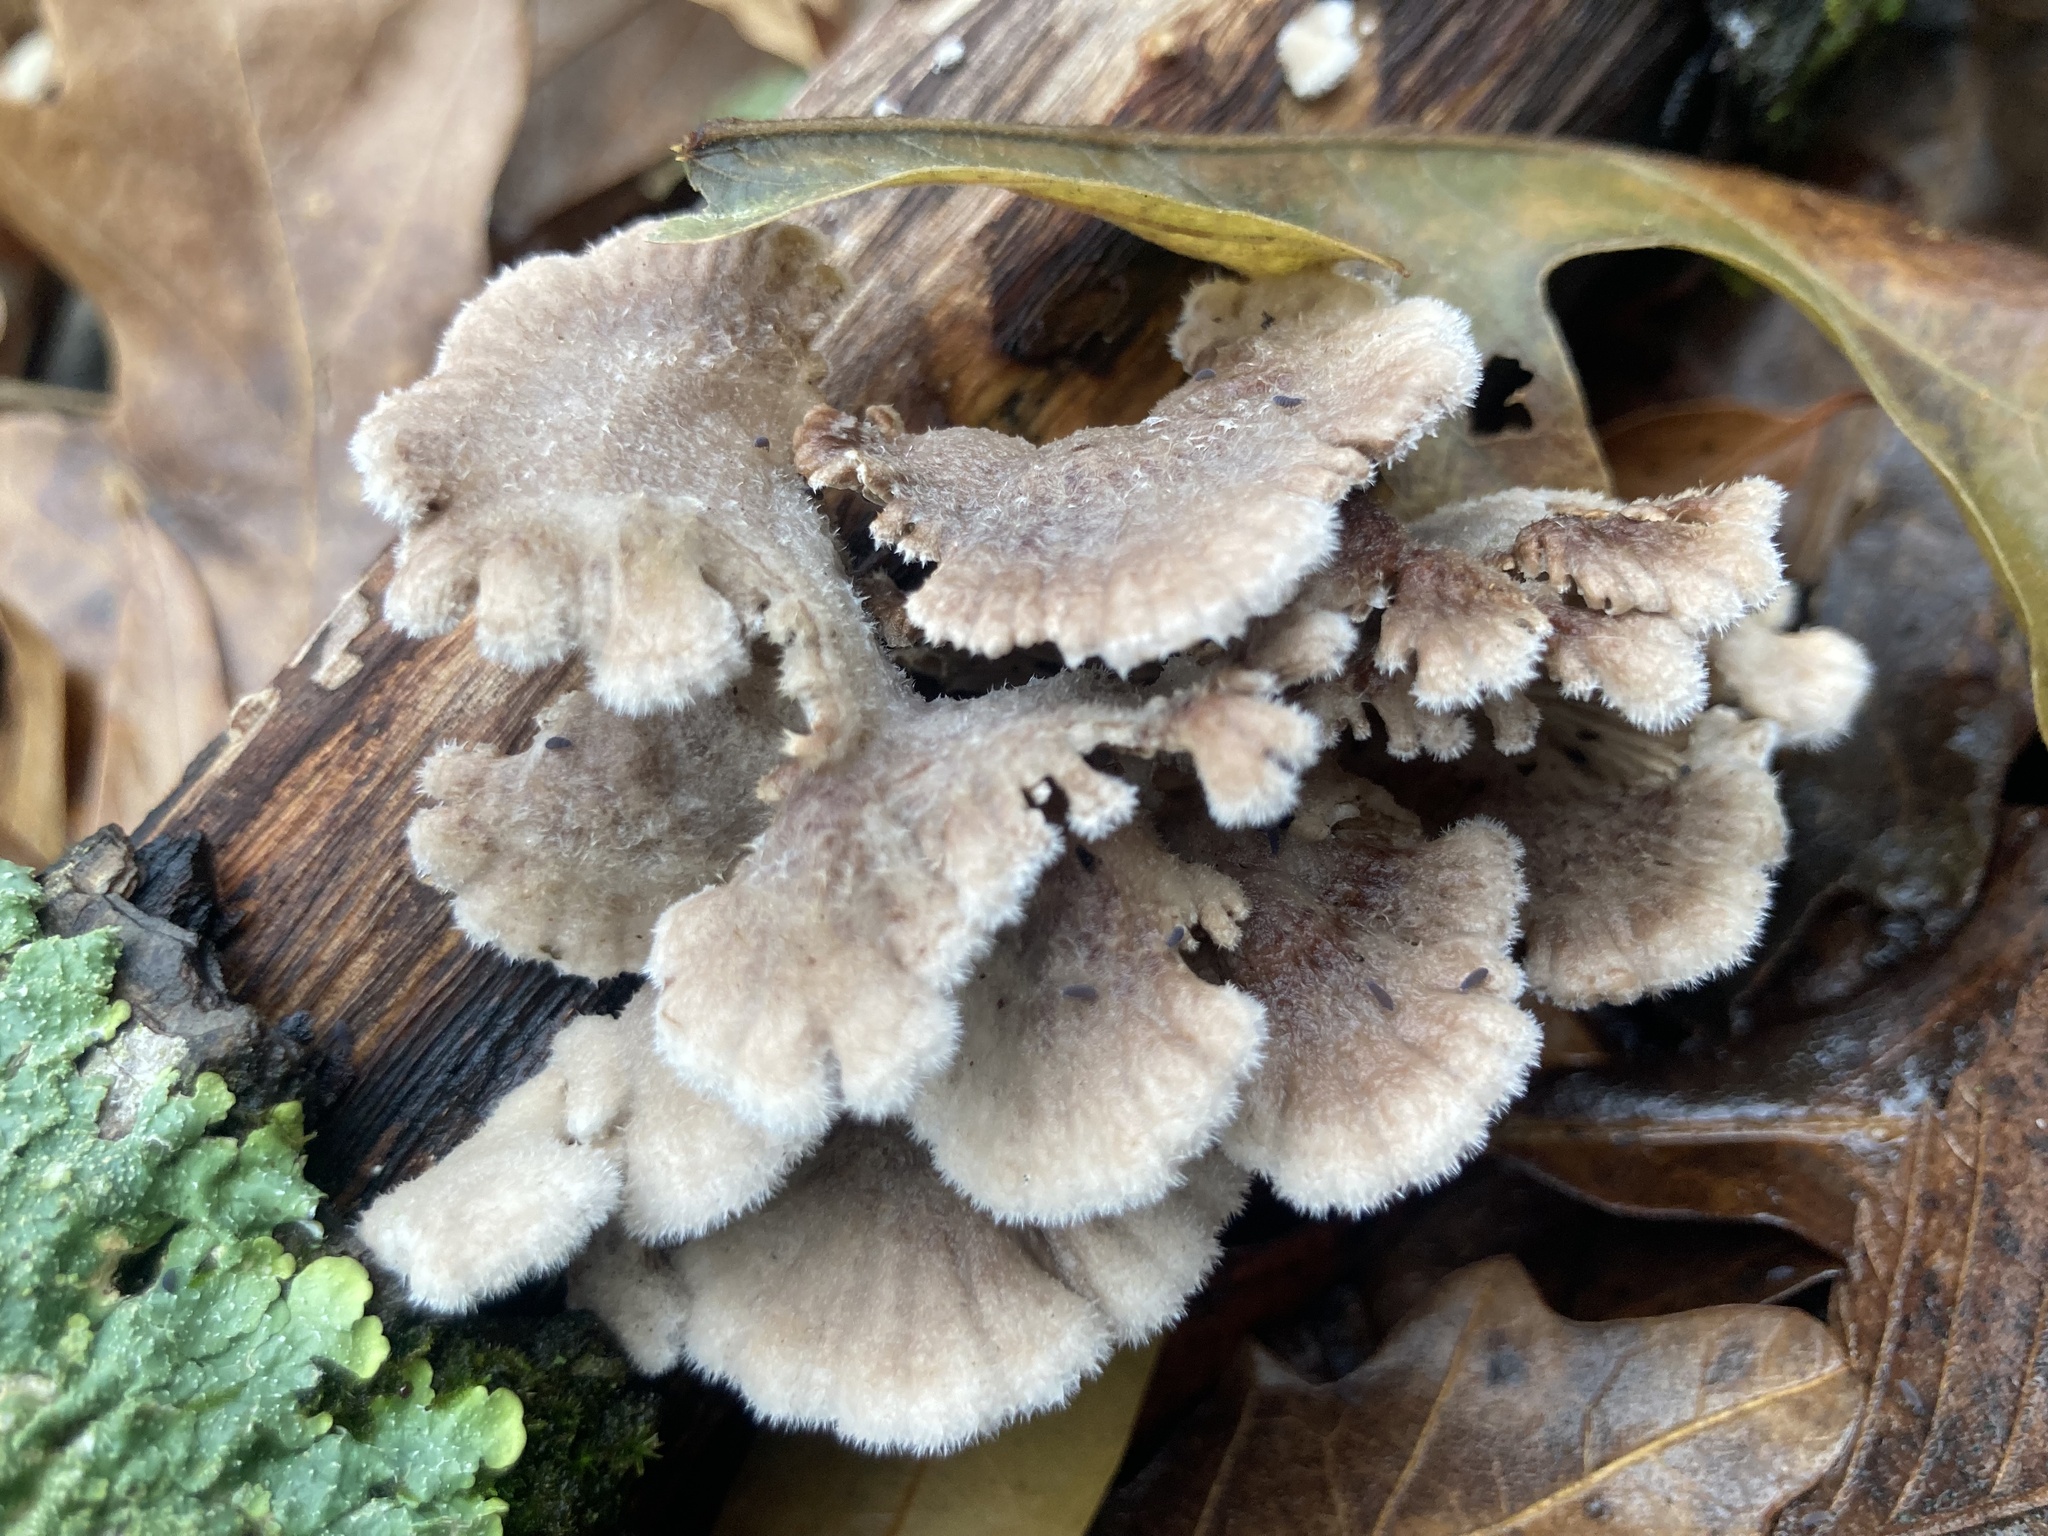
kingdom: Fungi
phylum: Basidiomycota
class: Agaricomycetes
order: Agaricales
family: Schizophyllaceae
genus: Schizophyllum
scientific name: Schizophyllum commune
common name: Common porecrust
